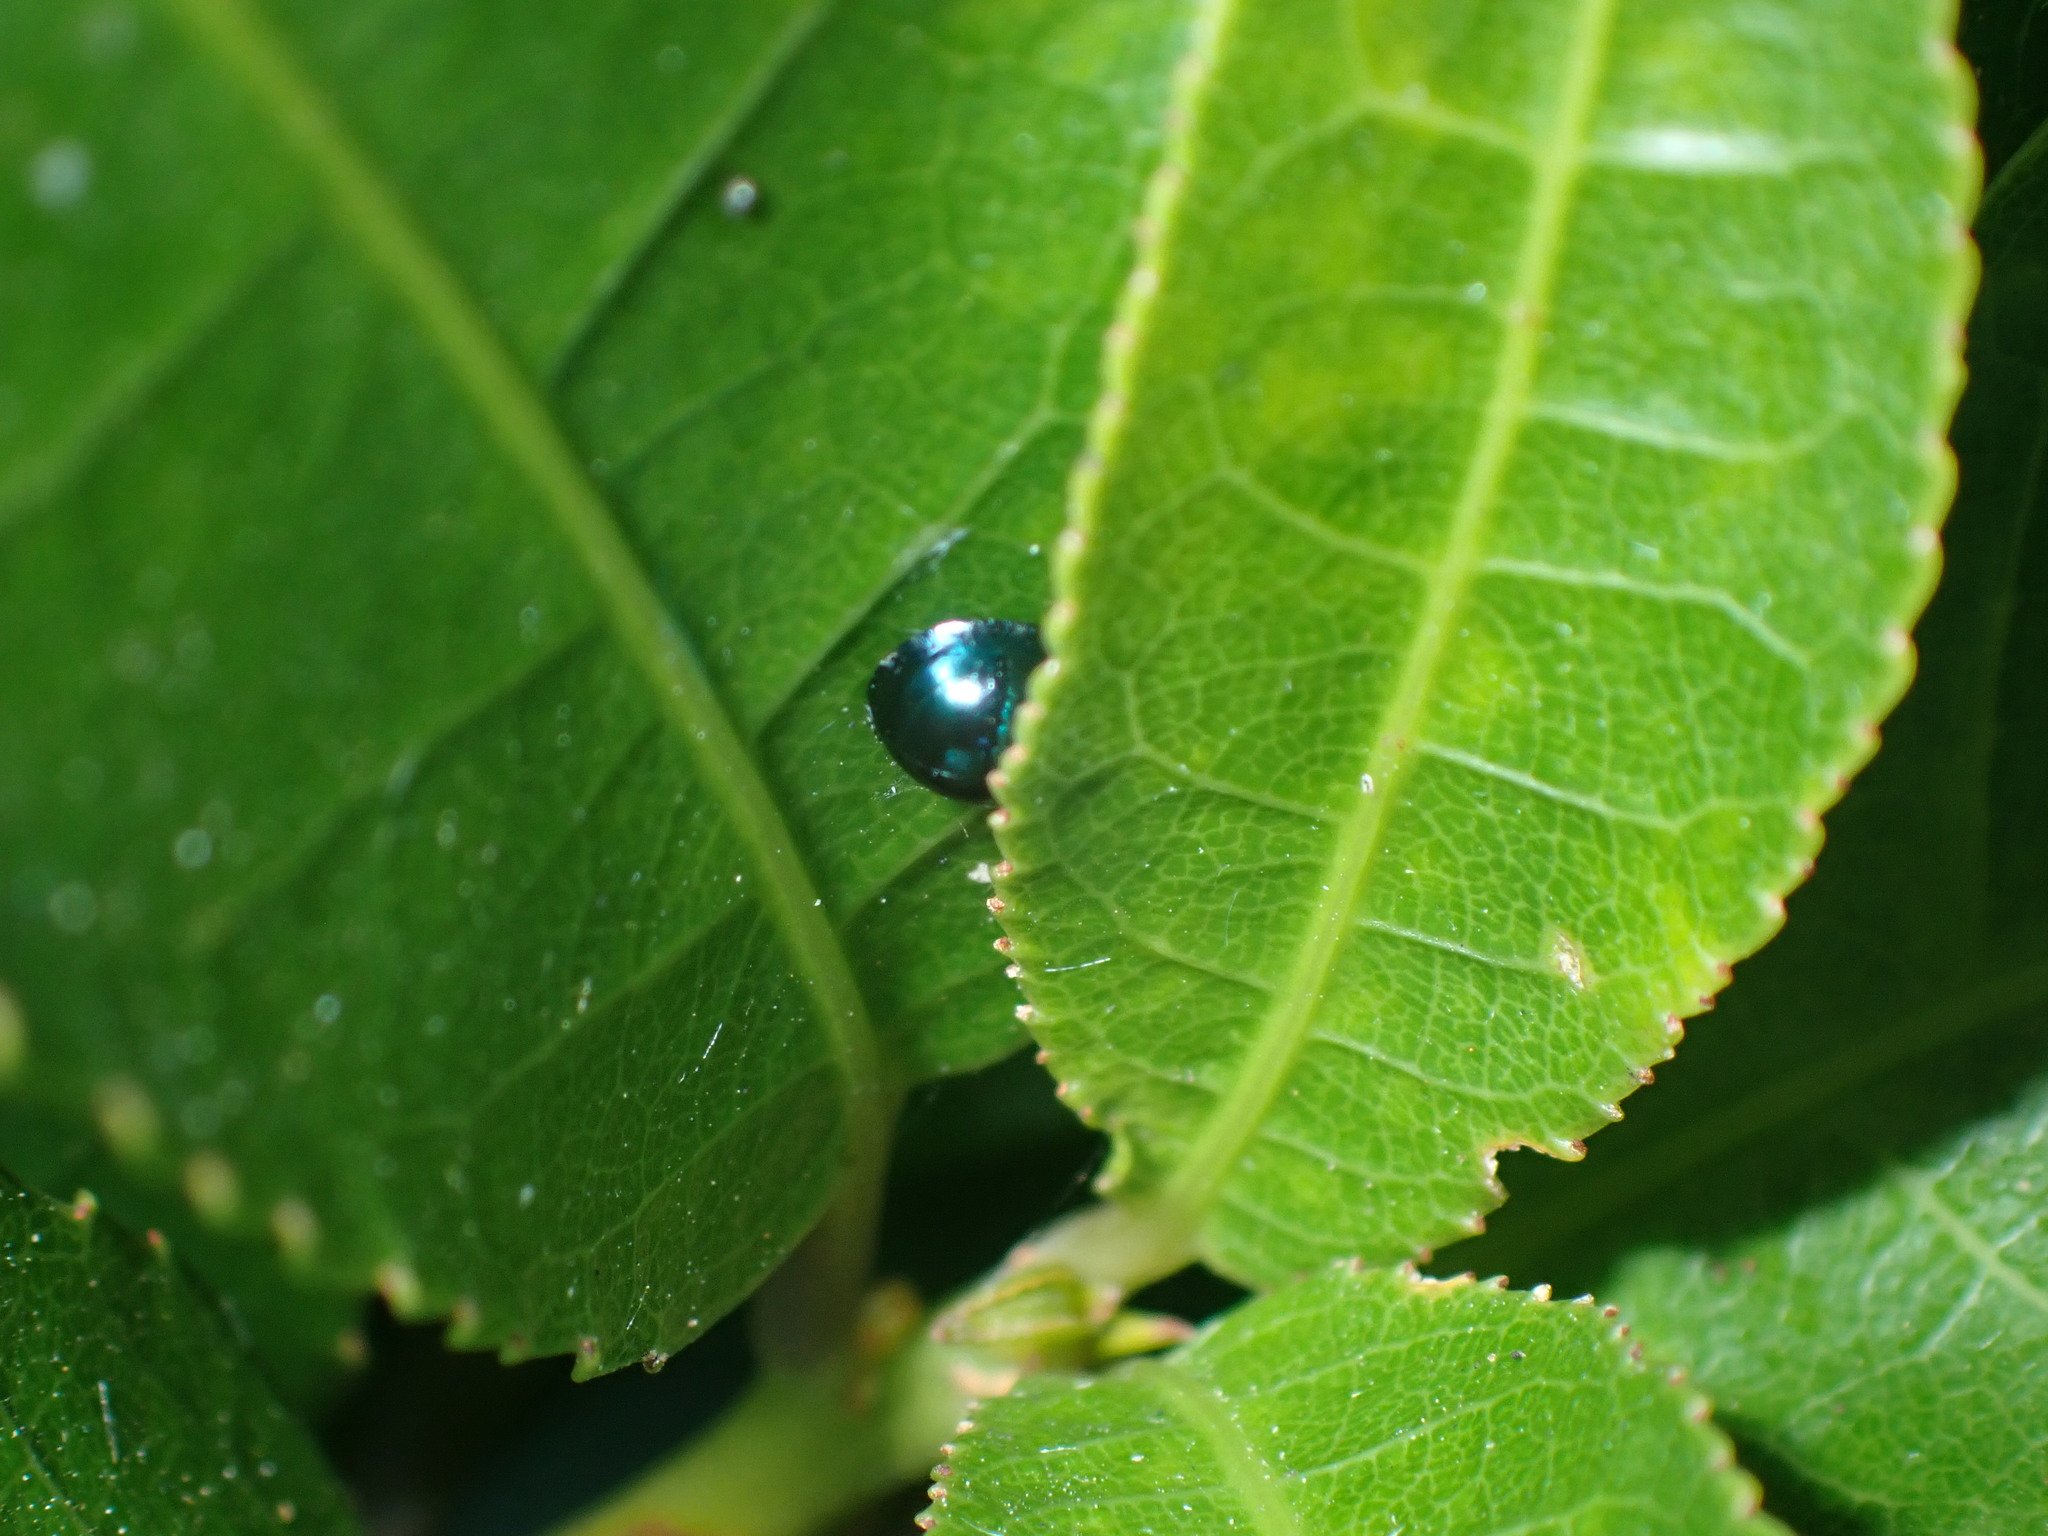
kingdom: Animalia
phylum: Arthropoda
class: Insecta
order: Coleoptera
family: Coccinellidae
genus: Halmus
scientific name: Halmus chalybeus
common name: Steel blue ladybird beetle
